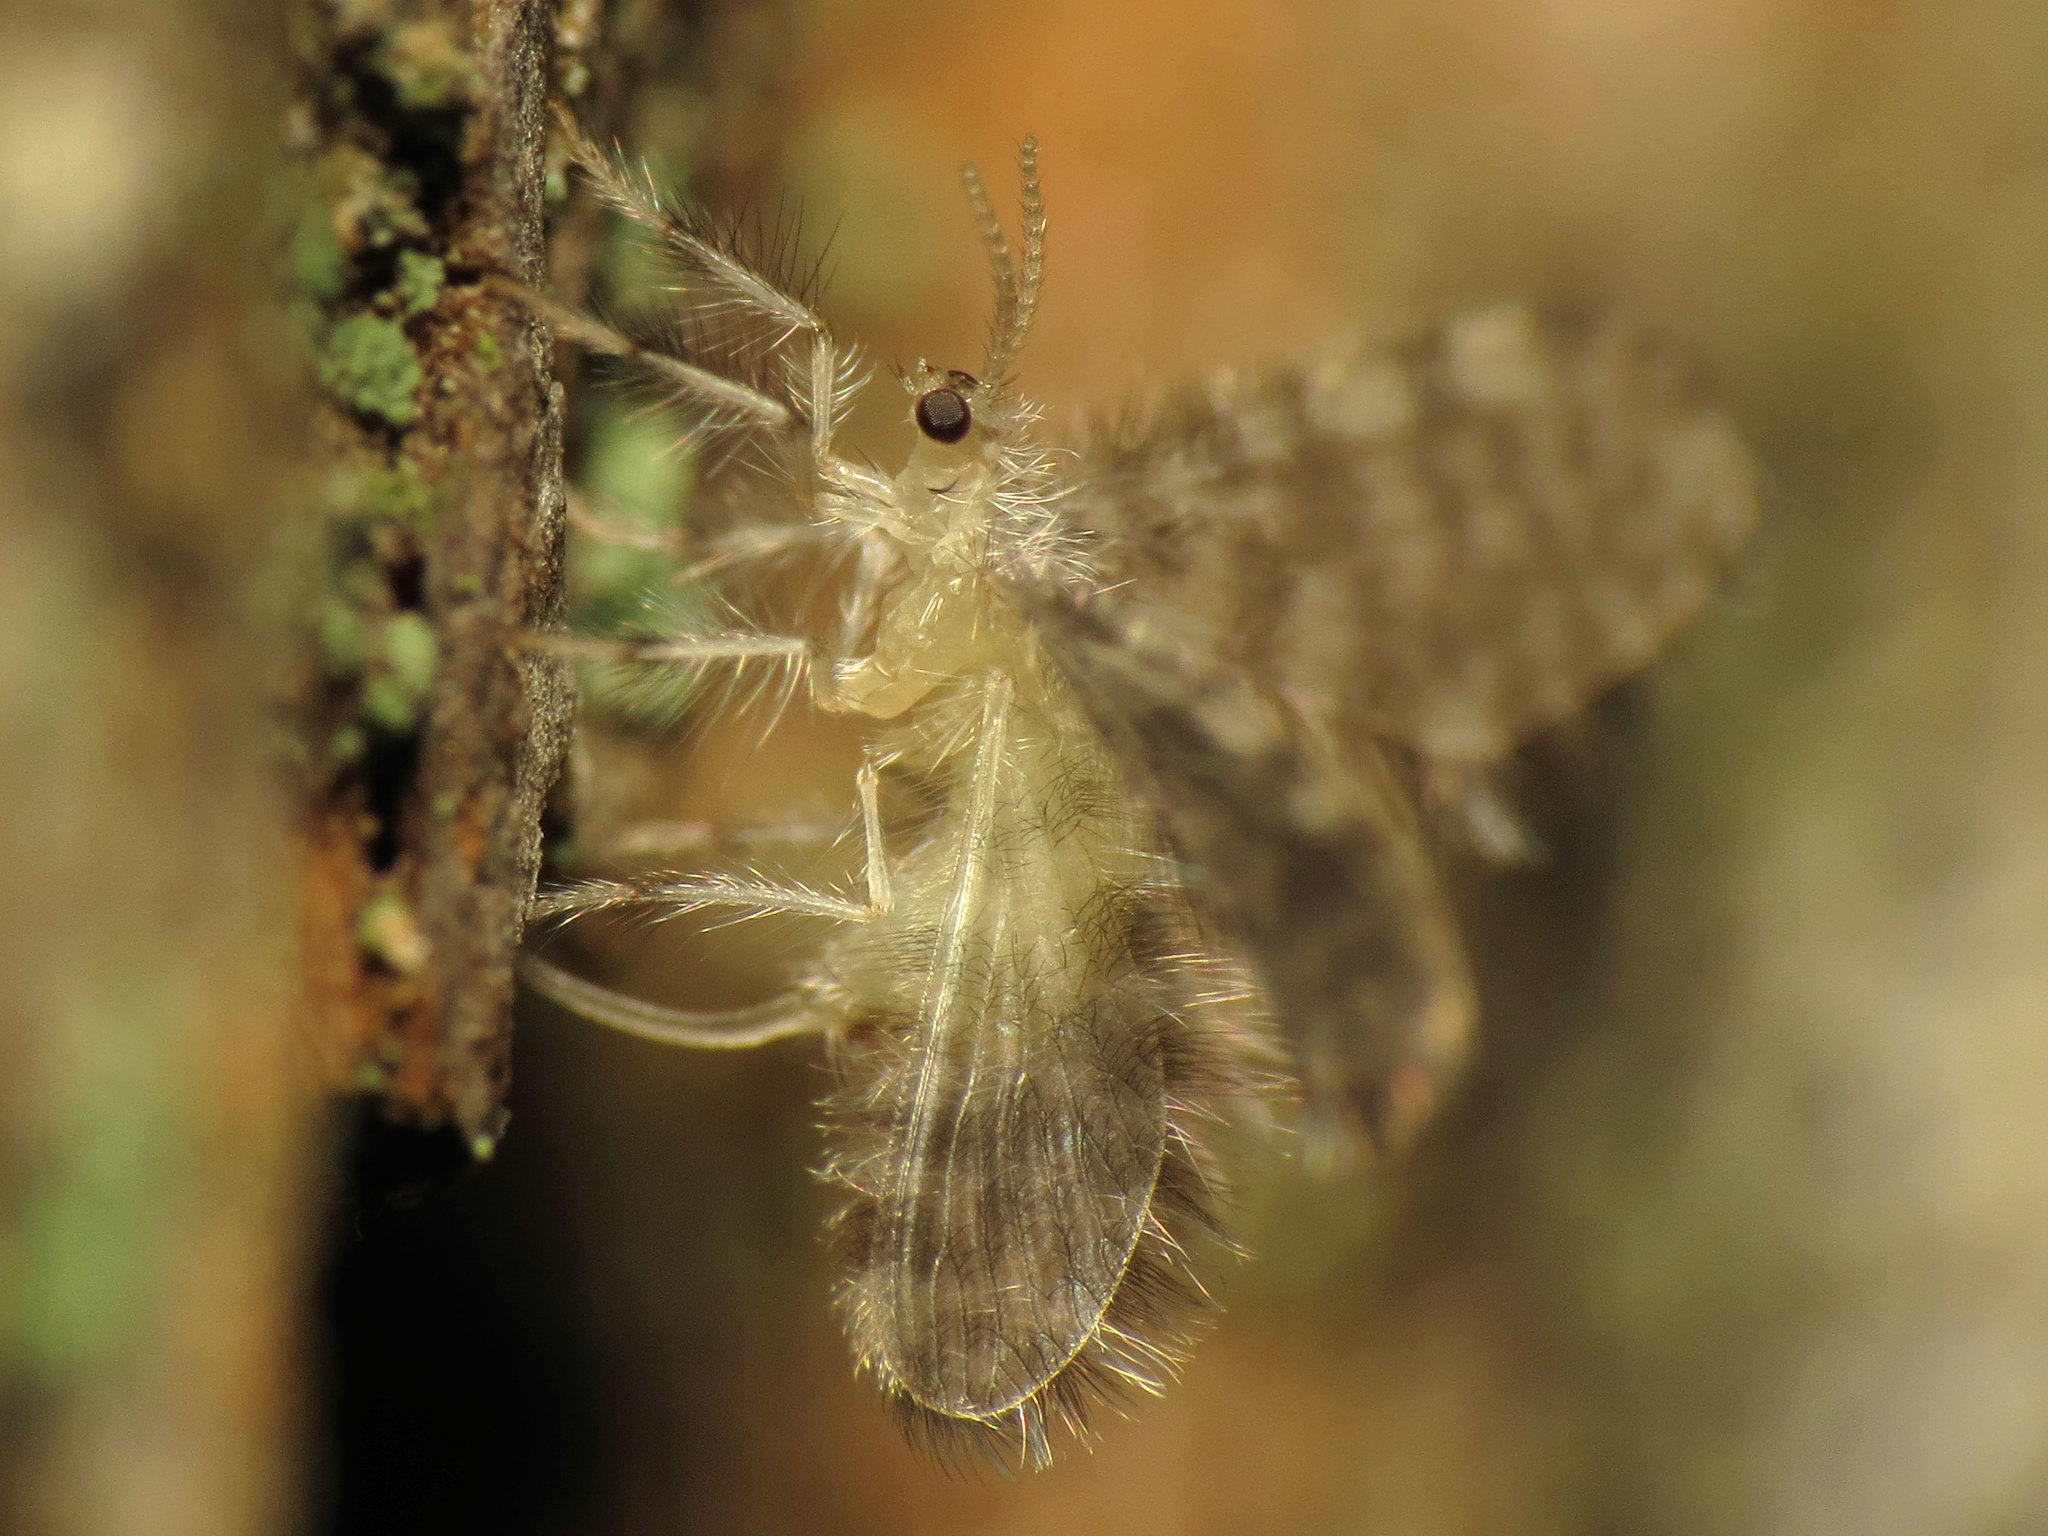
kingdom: Animalia
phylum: Arthropoda
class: Insecta
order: Neuroptera
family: Dilaridae
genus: Nallachius
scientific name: Nallachius americanus
